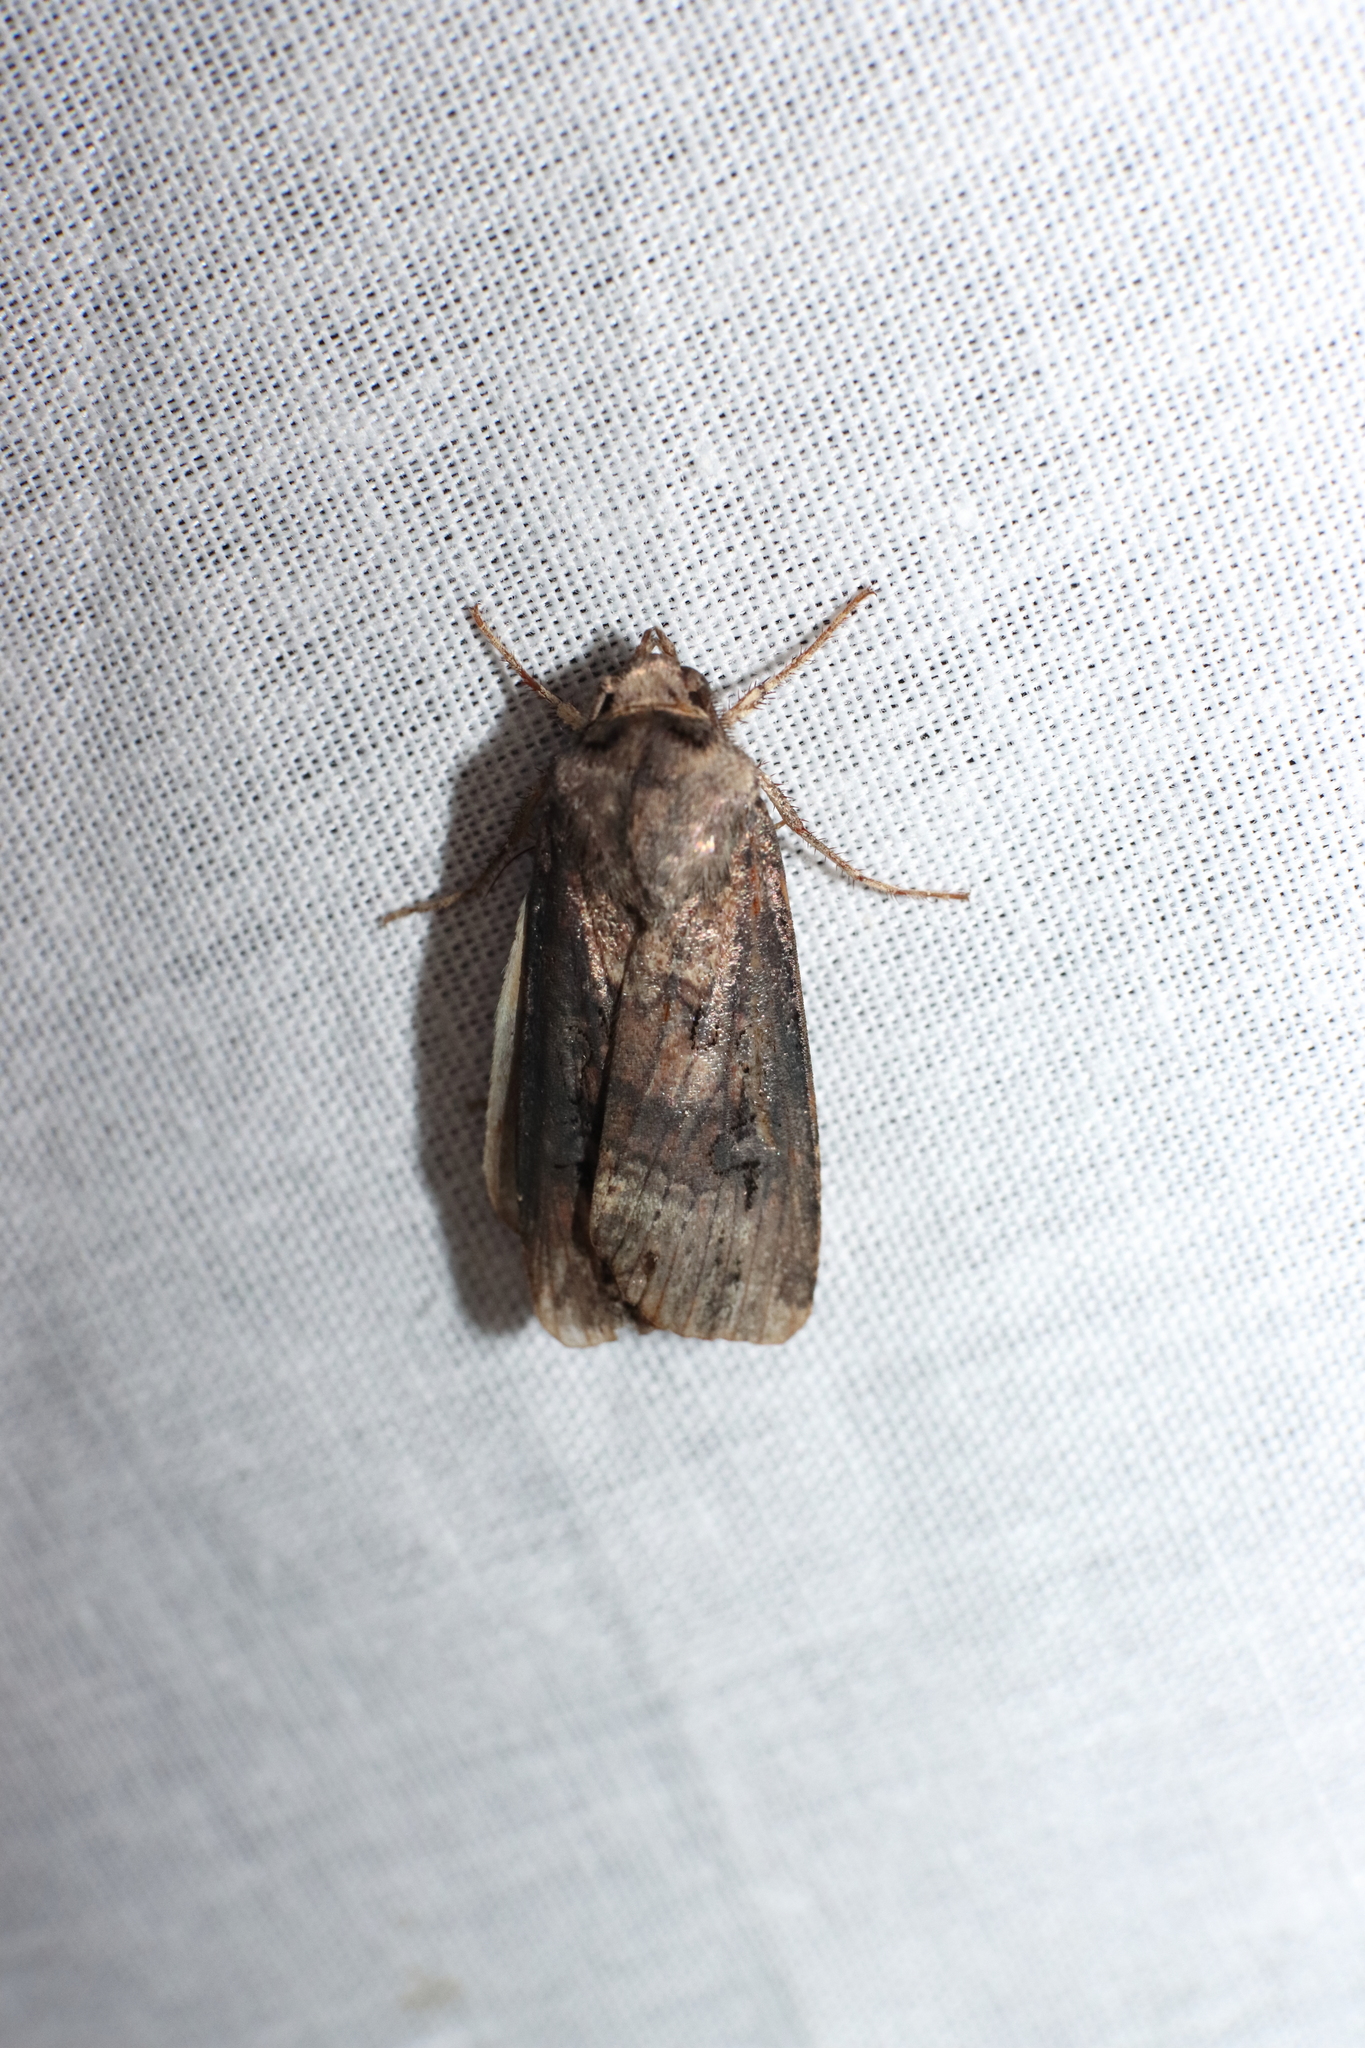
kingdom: Animalia
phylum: Arthropoda
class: Insecta
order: Lepidoptera
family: Noctuidae
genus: Agrotis
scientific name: Agrotis ipsilon
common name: Dark sword-grass
